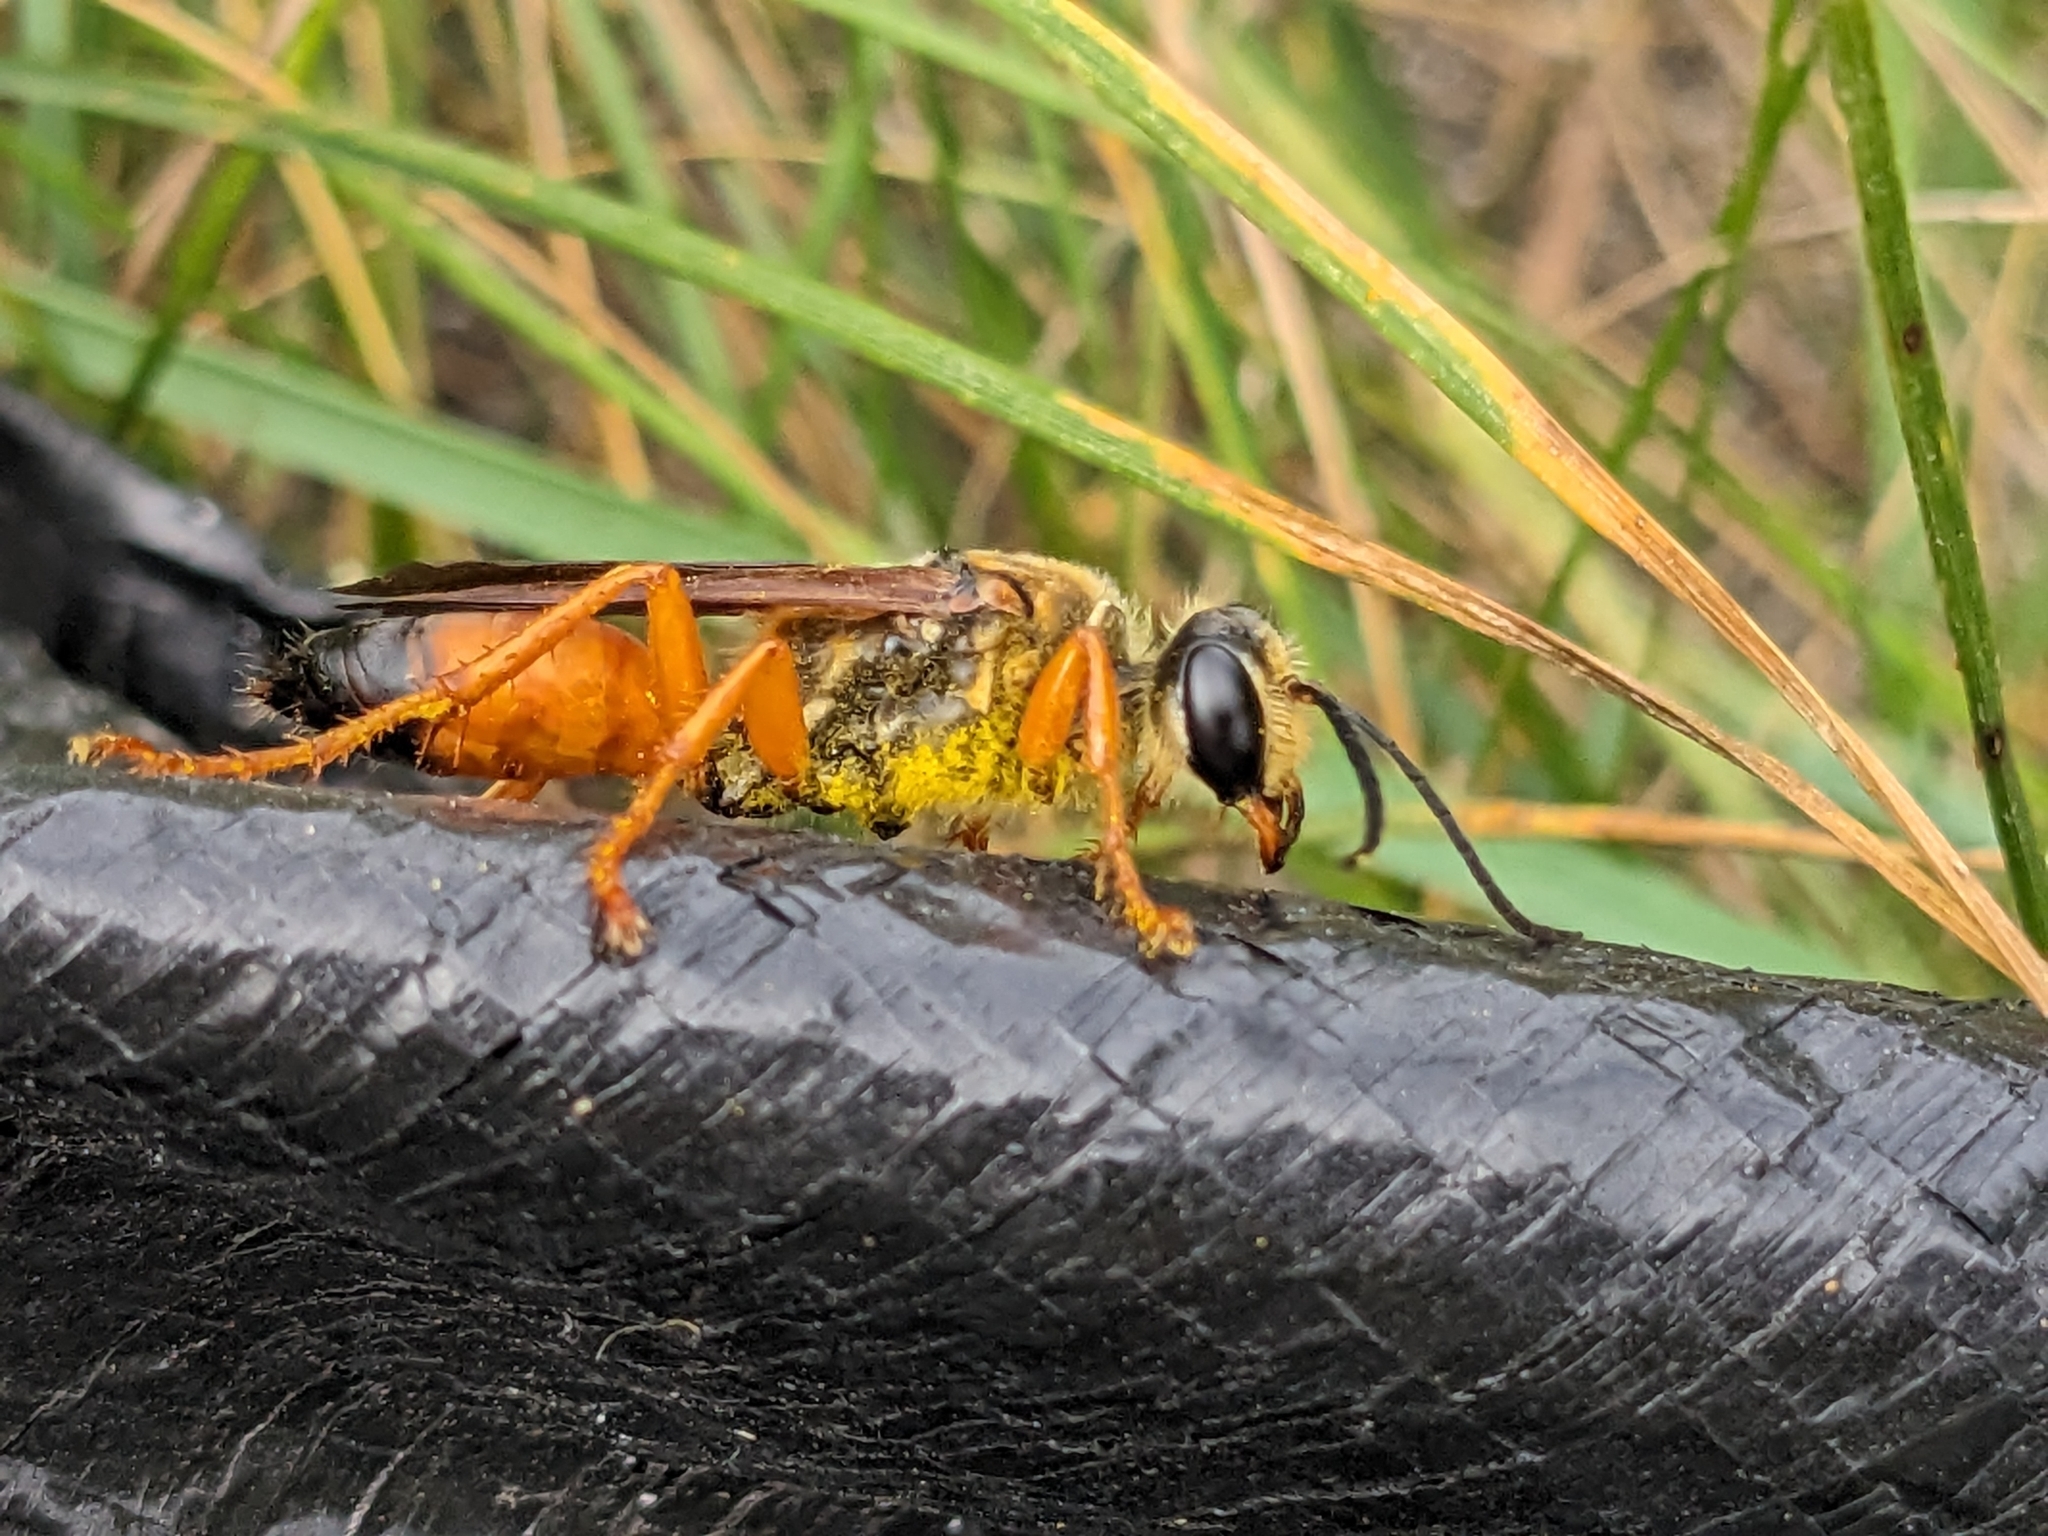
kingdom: Animalia
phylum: Arthropoda
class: Insecta
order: Hymenoptera
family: Sphecidae
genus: Sphex
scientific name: Sphex ichneumoneus
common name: Great golden digger wasp
